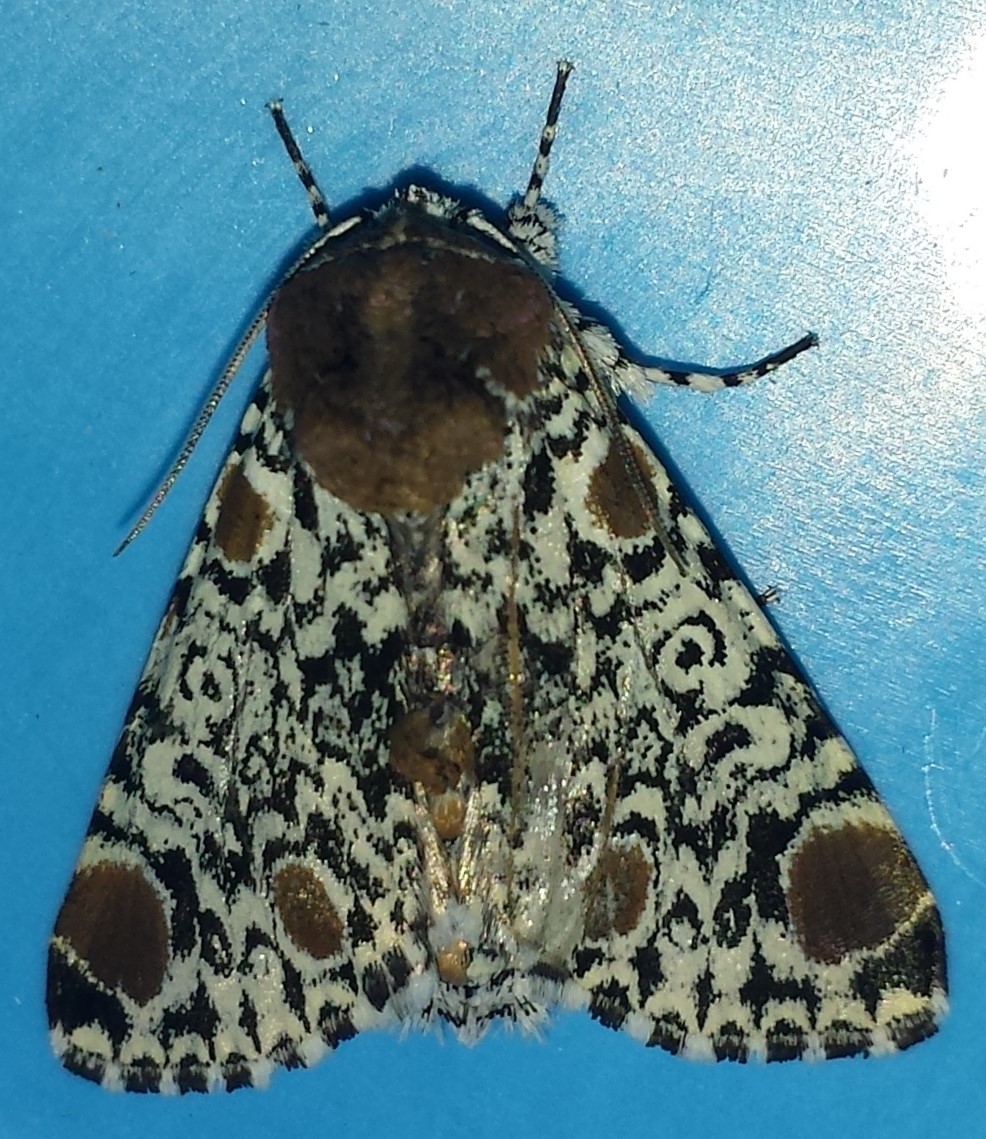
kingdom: Animalia
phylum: Arthropoda
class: Insecta
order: Lepidoptera
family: Noctuidae
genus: Harrisimemna
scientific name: Harrisimemna trisignata
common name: Harris threespot
